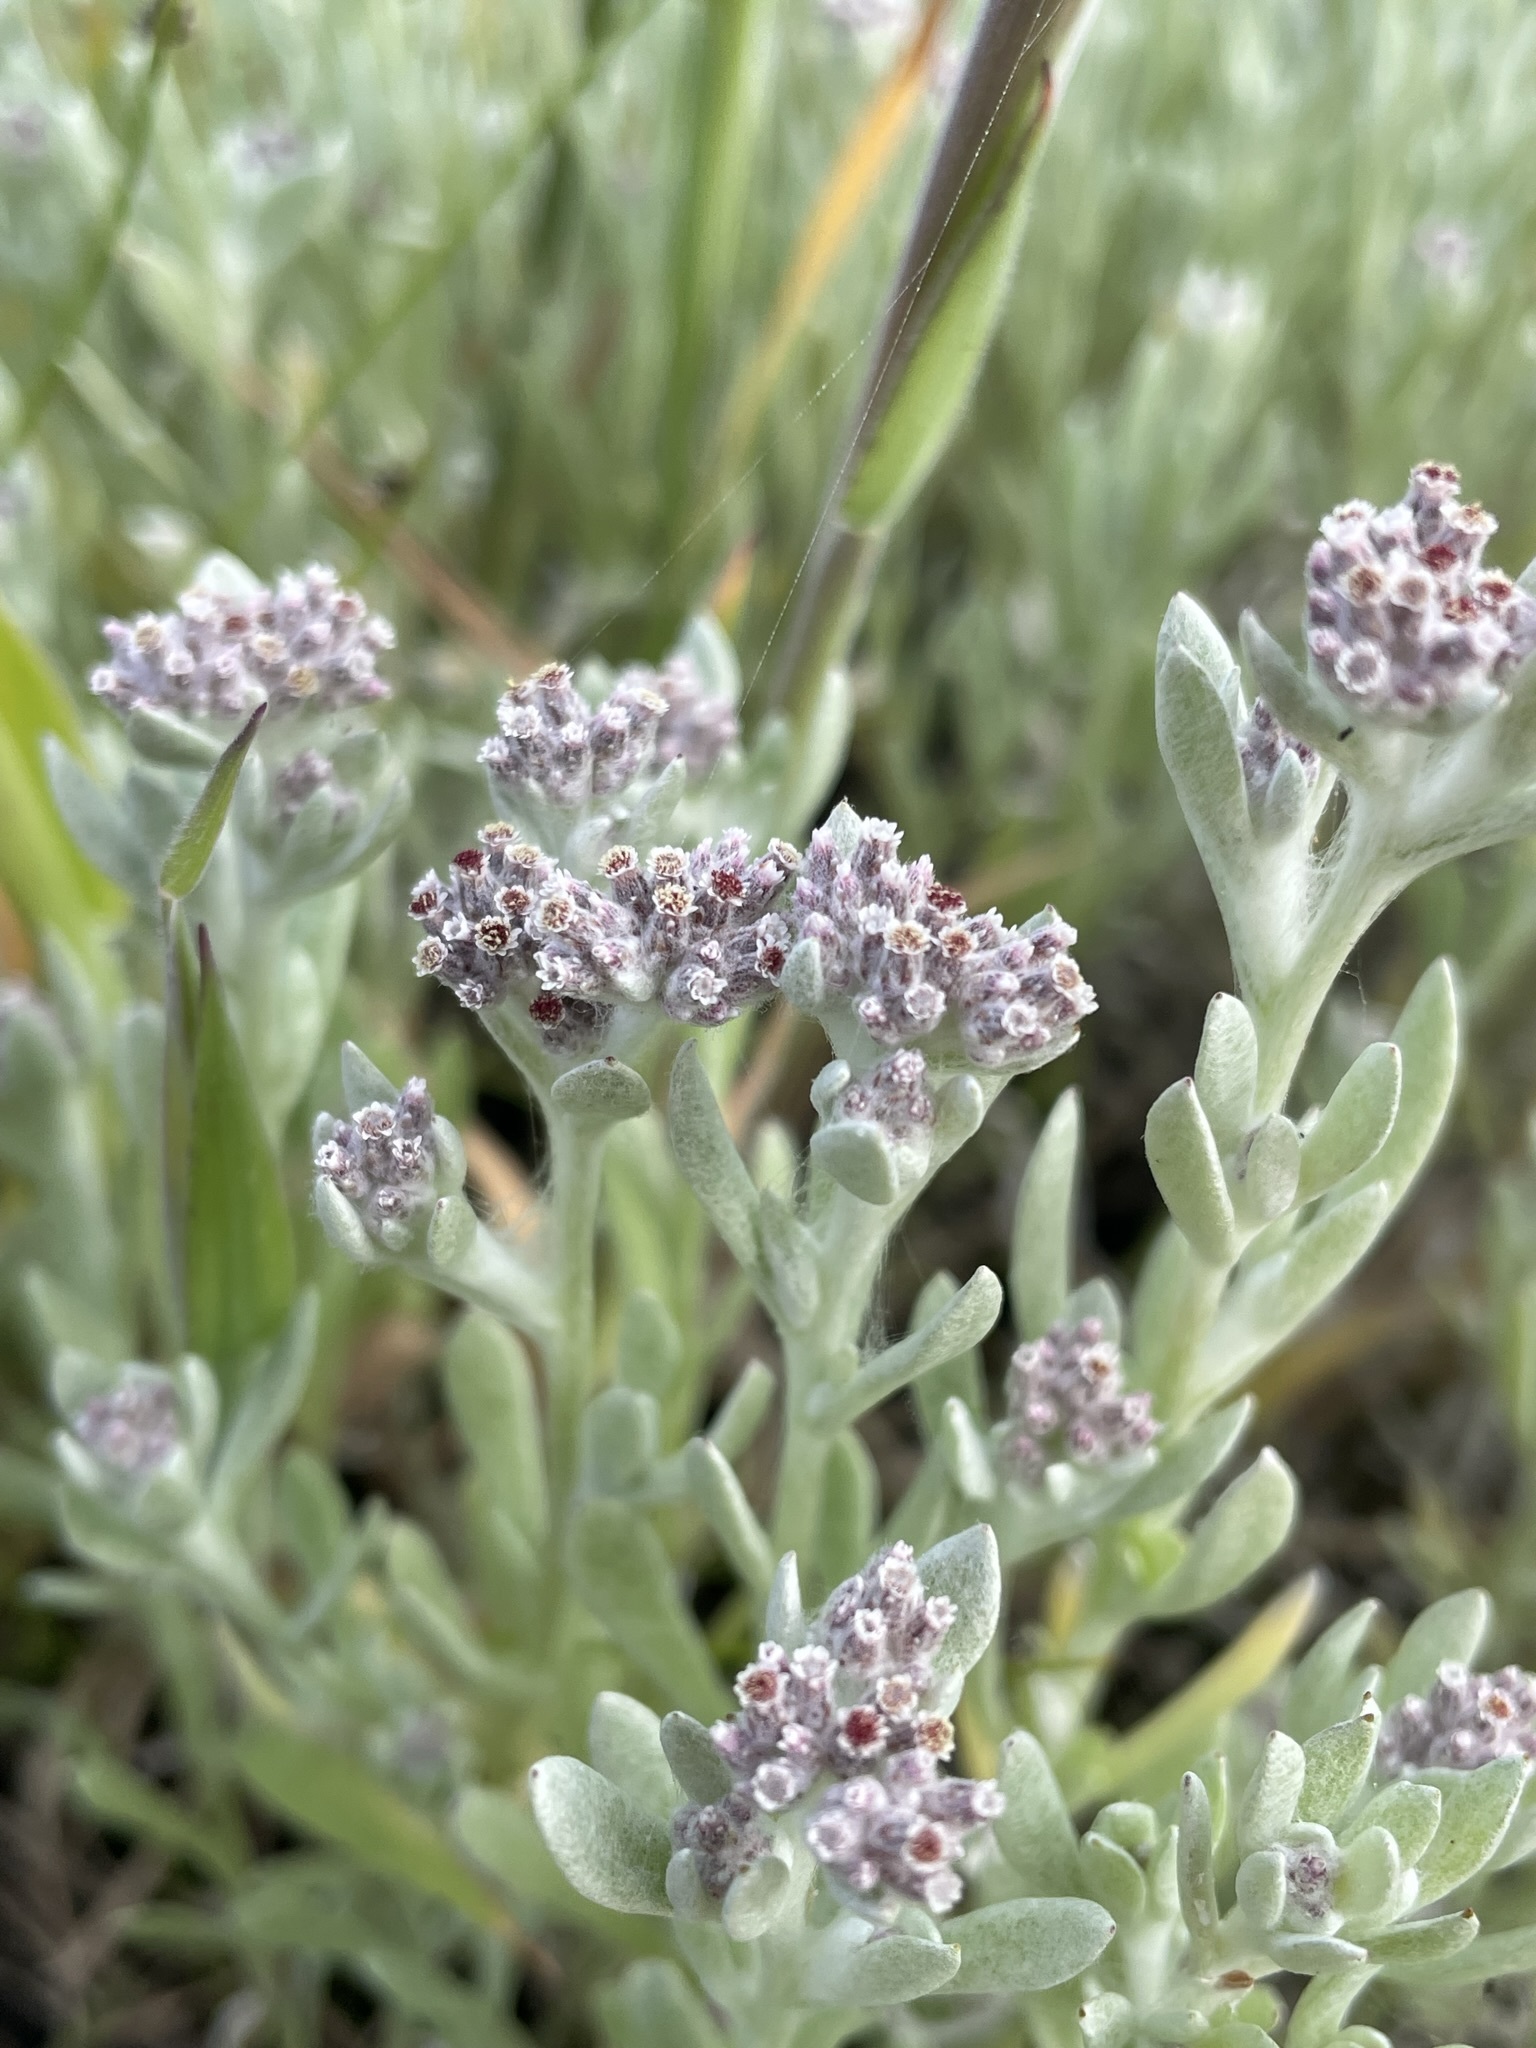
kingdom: Plantae
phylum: Tracheophyta
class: Magnoliopsida
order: Asterales
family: Asteraceae
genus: Vellereophyton
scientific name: Vellereophyton dealbatum
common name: White-cudweed
